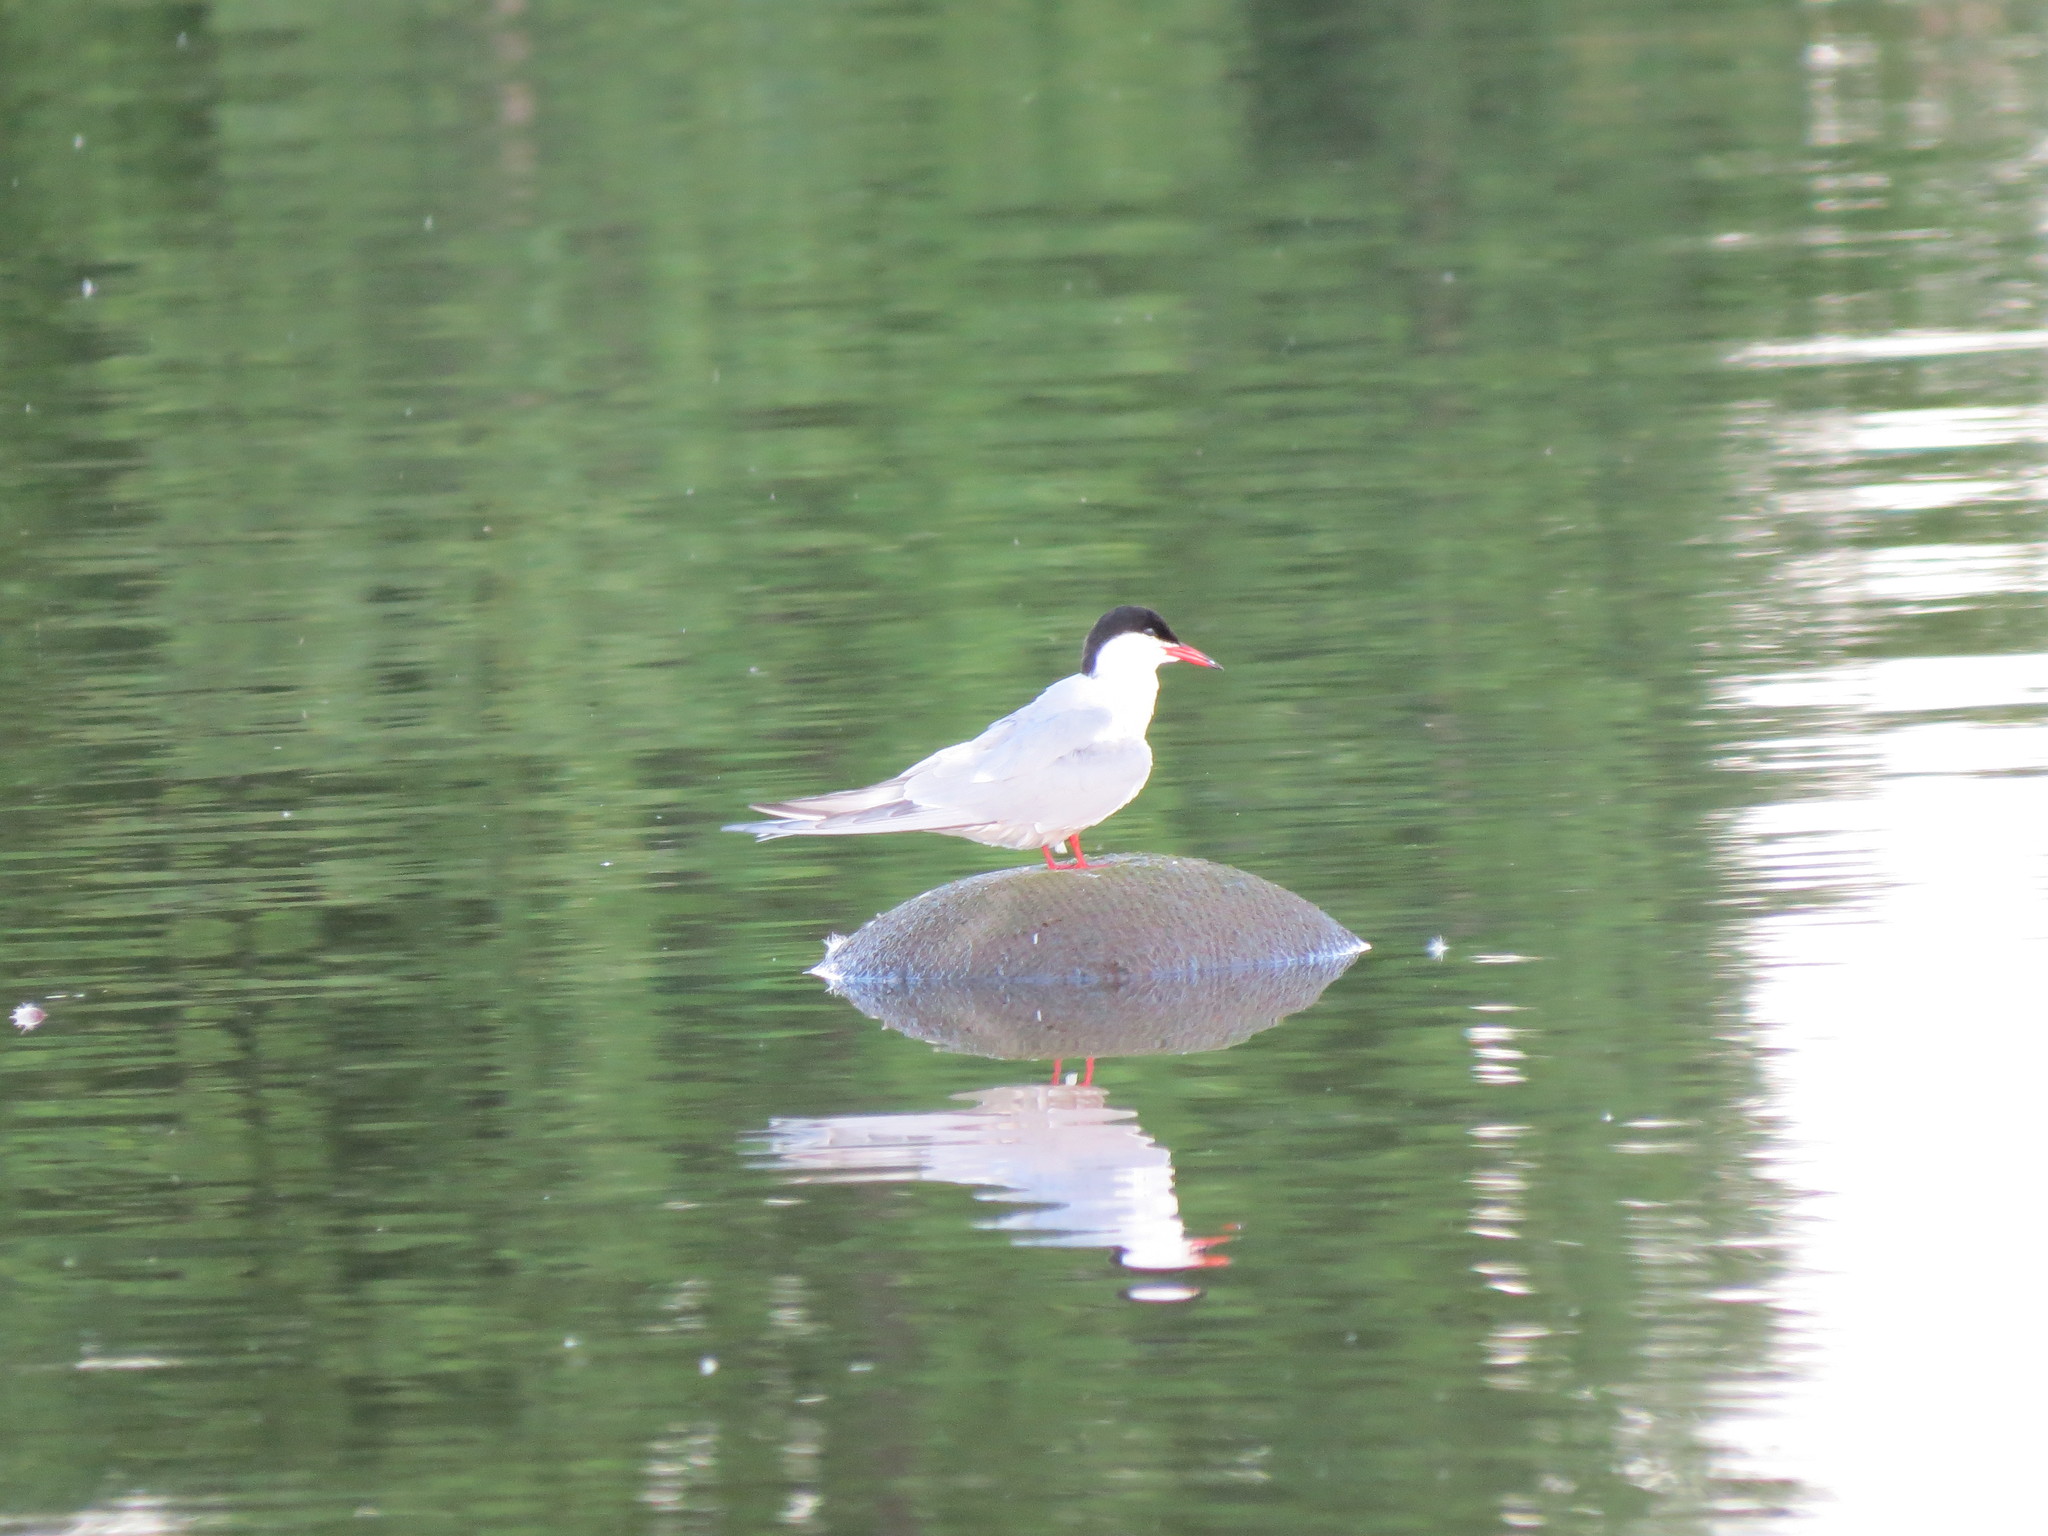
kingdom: Animalia
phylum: Chordata
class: Aves
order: Charadriiformes
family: Laridae
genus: Sterna
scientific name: Sterna hirundo
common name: Common tern
